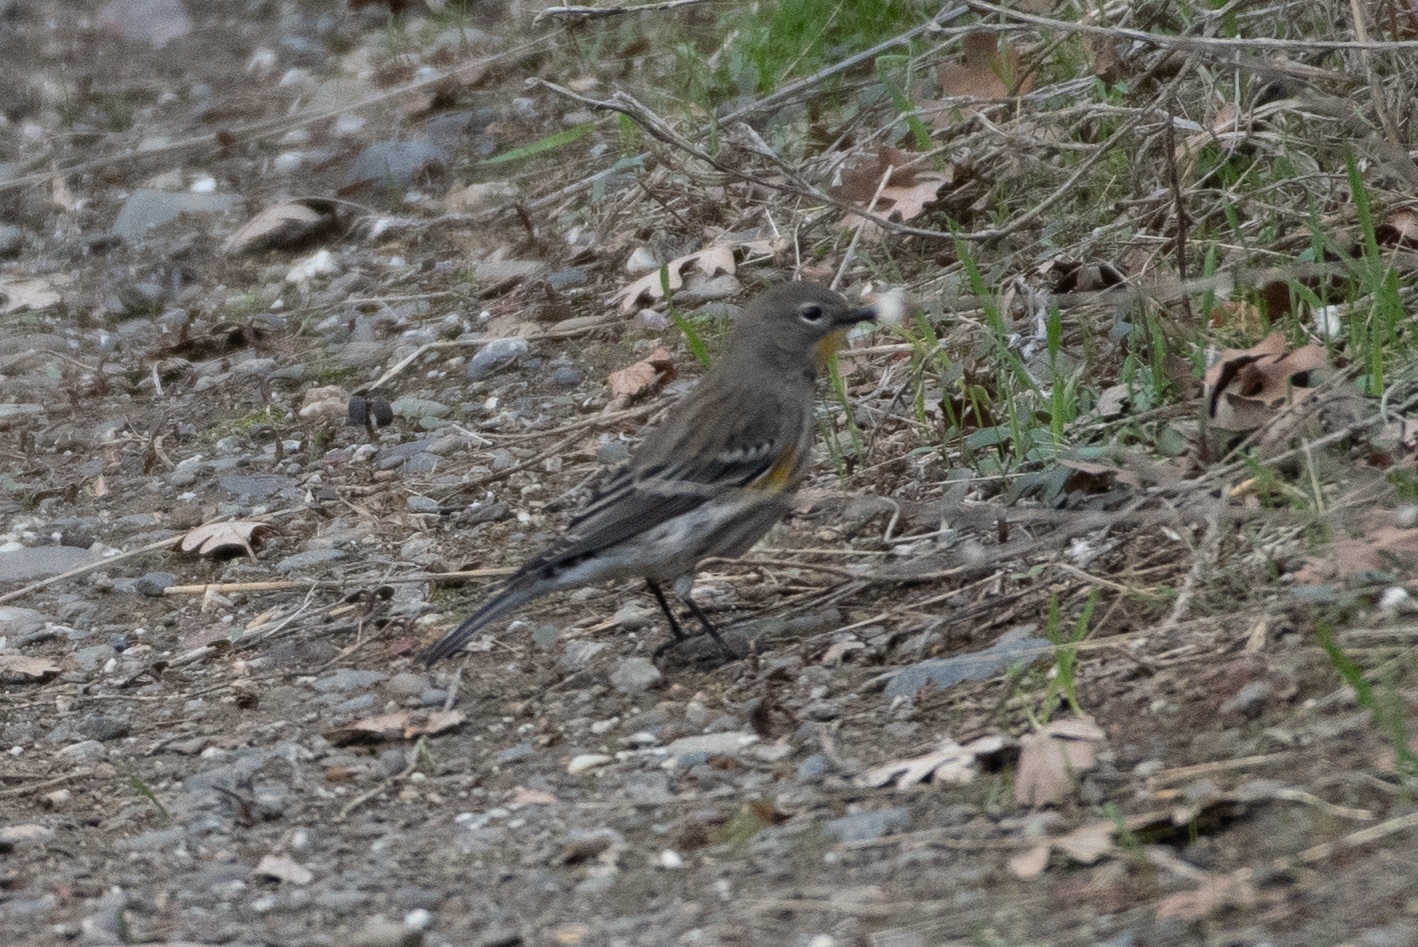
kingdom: Animalia
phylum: Chordata
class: Aves
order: Passeriformes
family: Parulidae
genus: Setophaga
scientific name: Setophaga coronata
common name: Myrtle warbler
